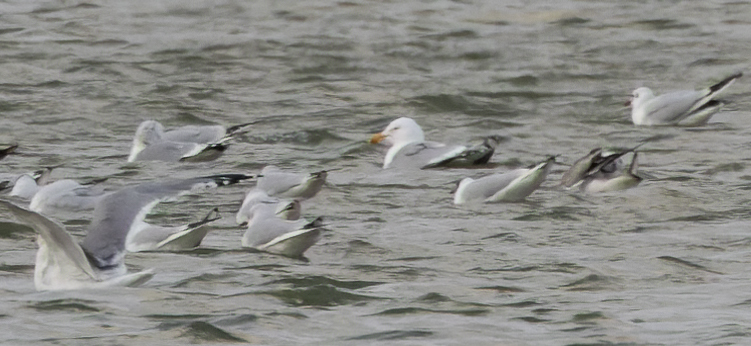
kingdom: Animalia
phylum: Chordata
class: Aves
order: Charadriiformes
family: Laridae
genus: Larus
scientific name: Larus argentatus
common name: Herring gull
